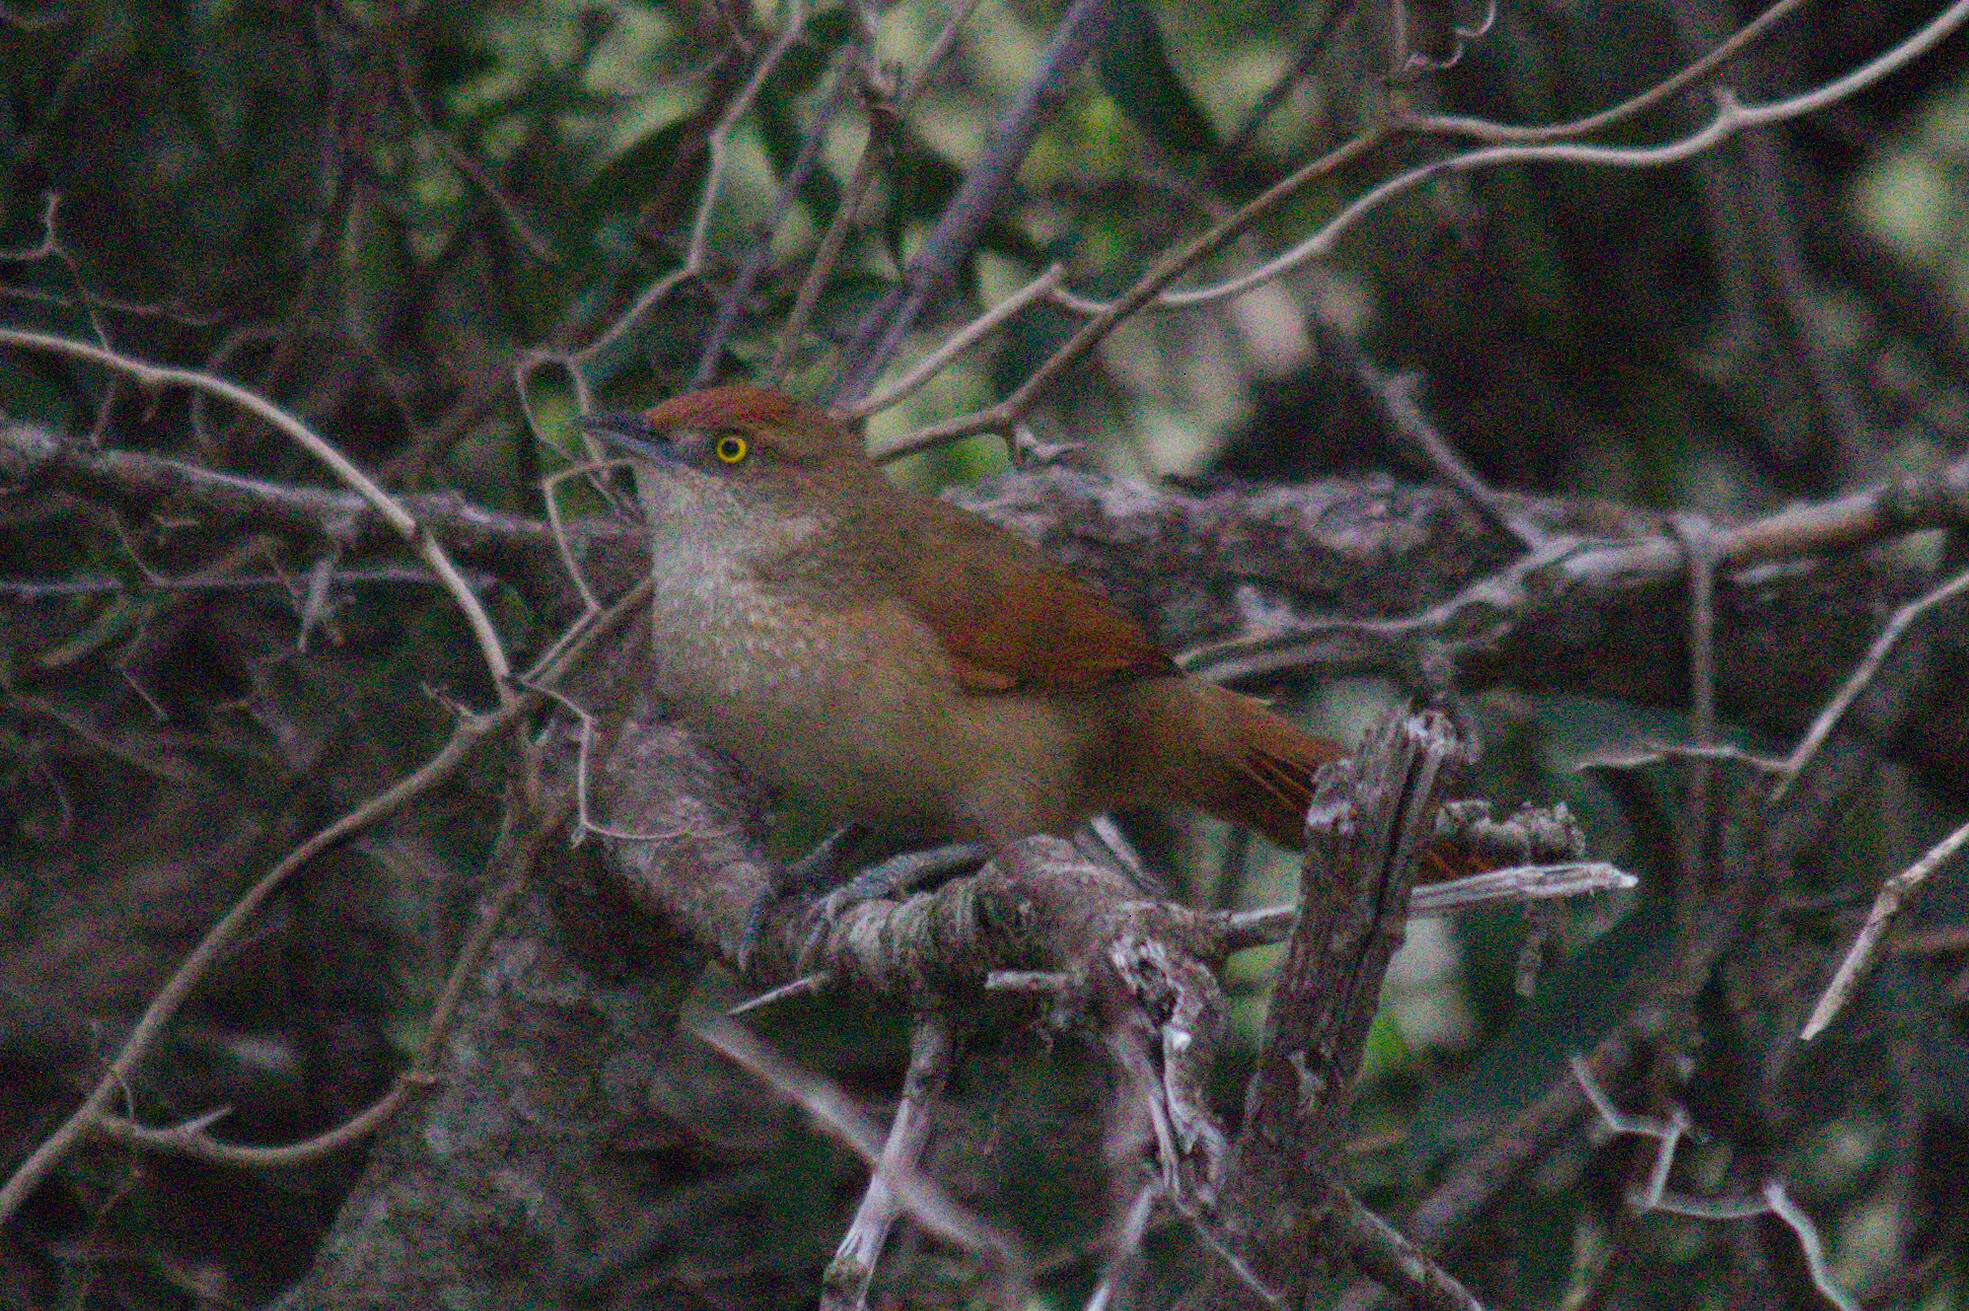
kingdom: Animalia
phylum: Chordata
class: Aves
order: Passeriformes
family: Furnariidae
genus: Phacellodomus
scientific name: Phacellodomus ruber
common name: Greater thornbird
